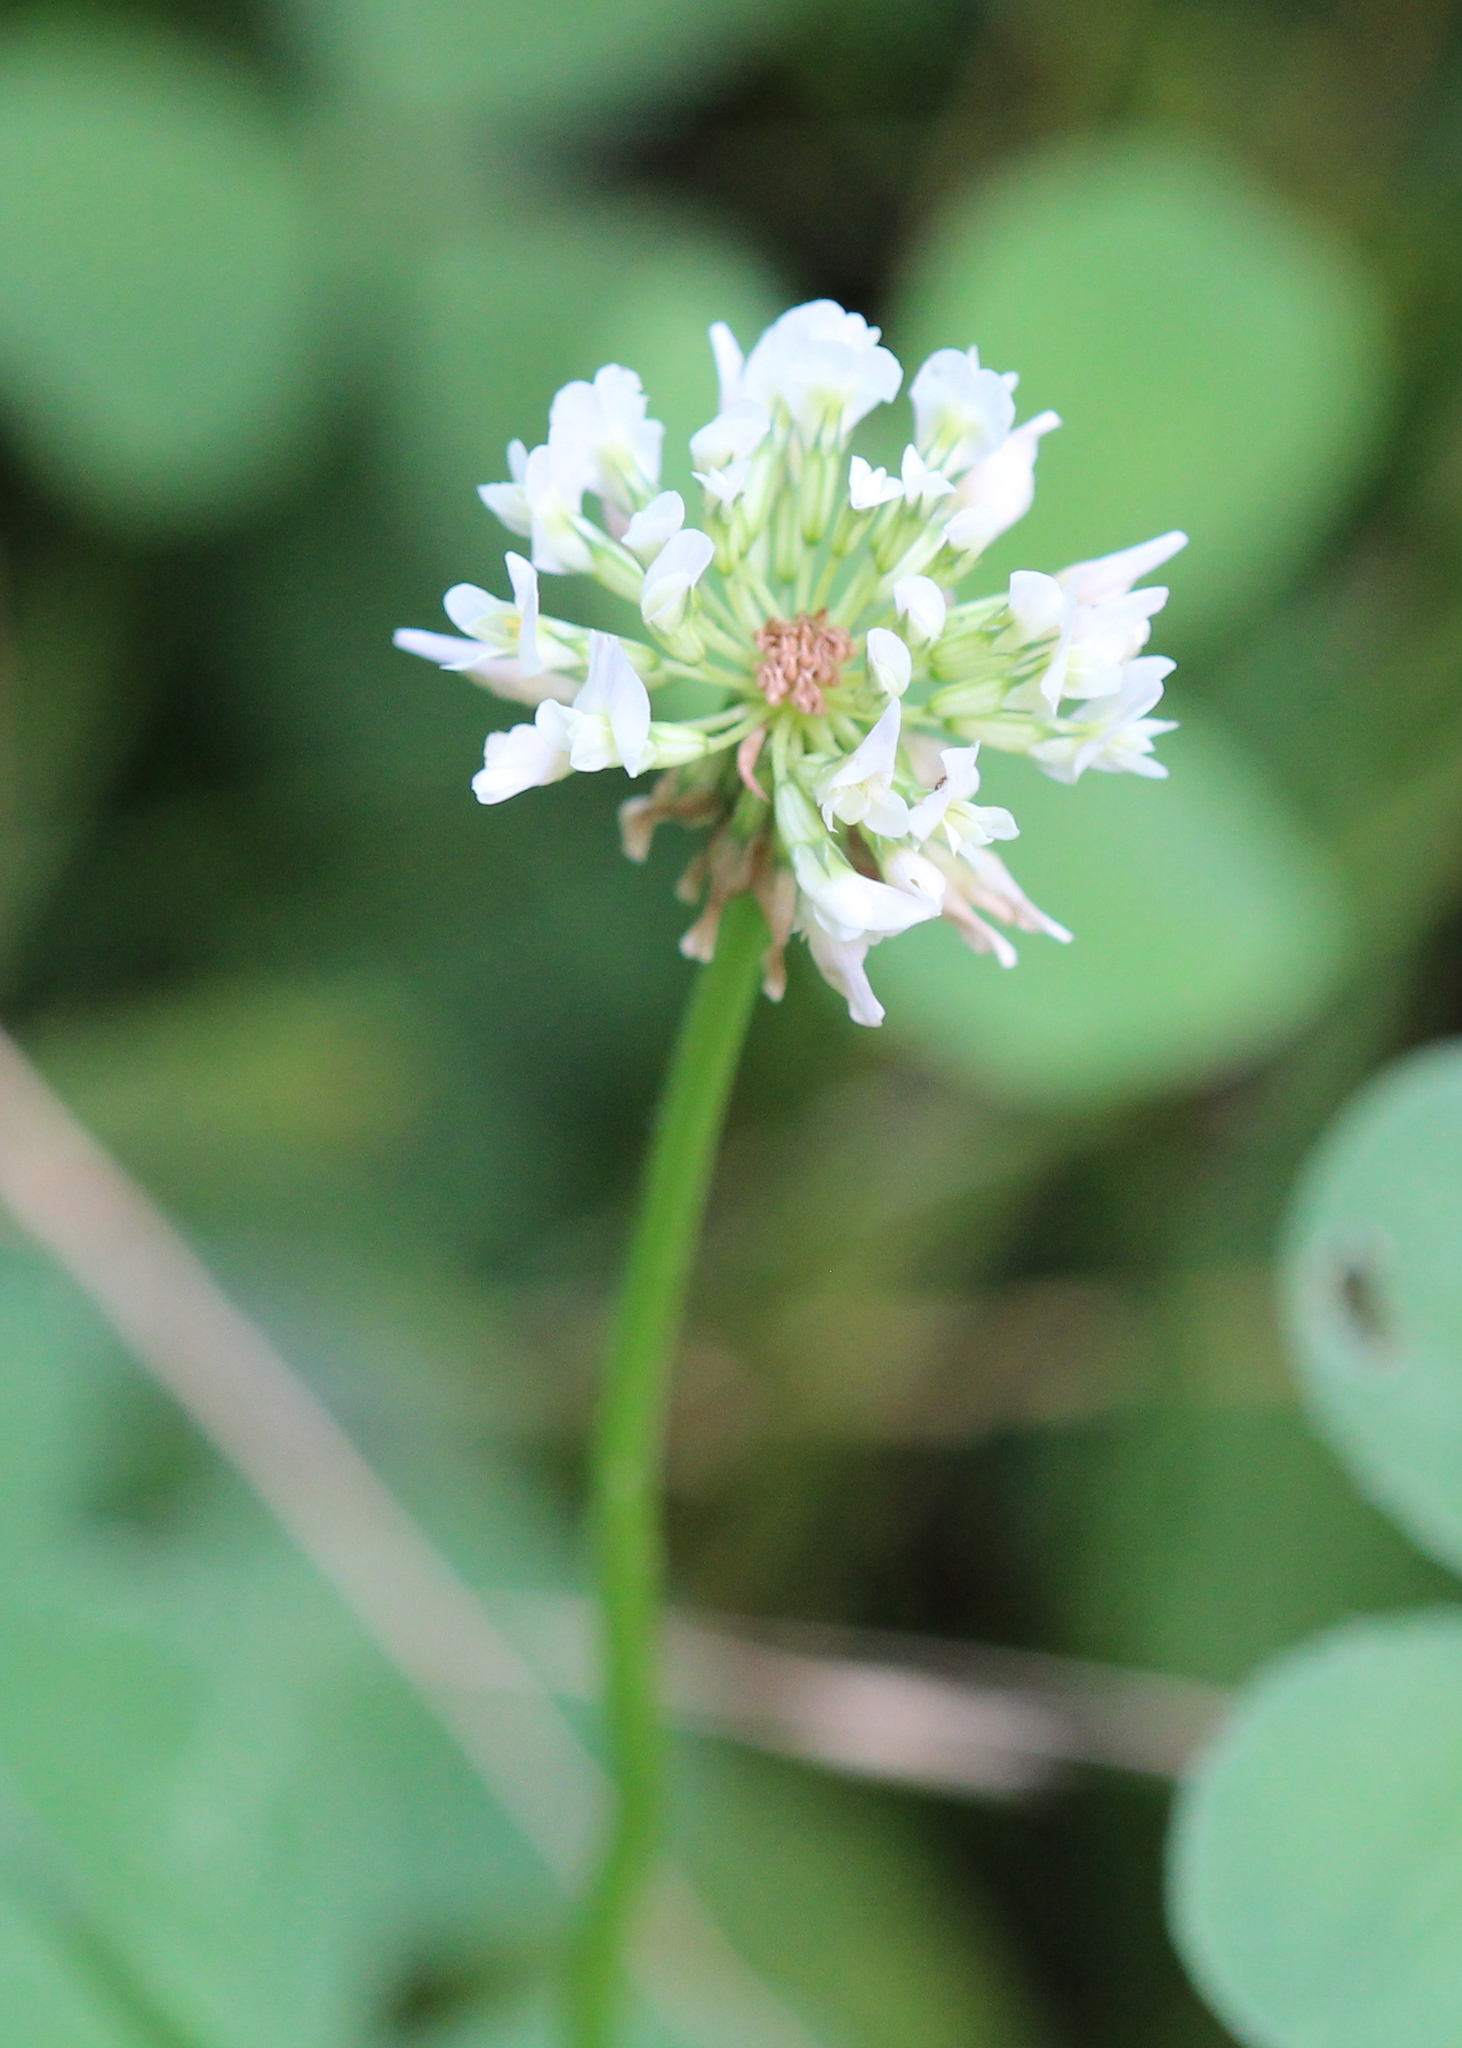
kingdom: Plantae
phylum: Tracheophyta
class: Magnoliopsida
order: Fabales
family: Fabaceae
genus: Trifolium
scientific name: Trifolium repens
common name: White clover
